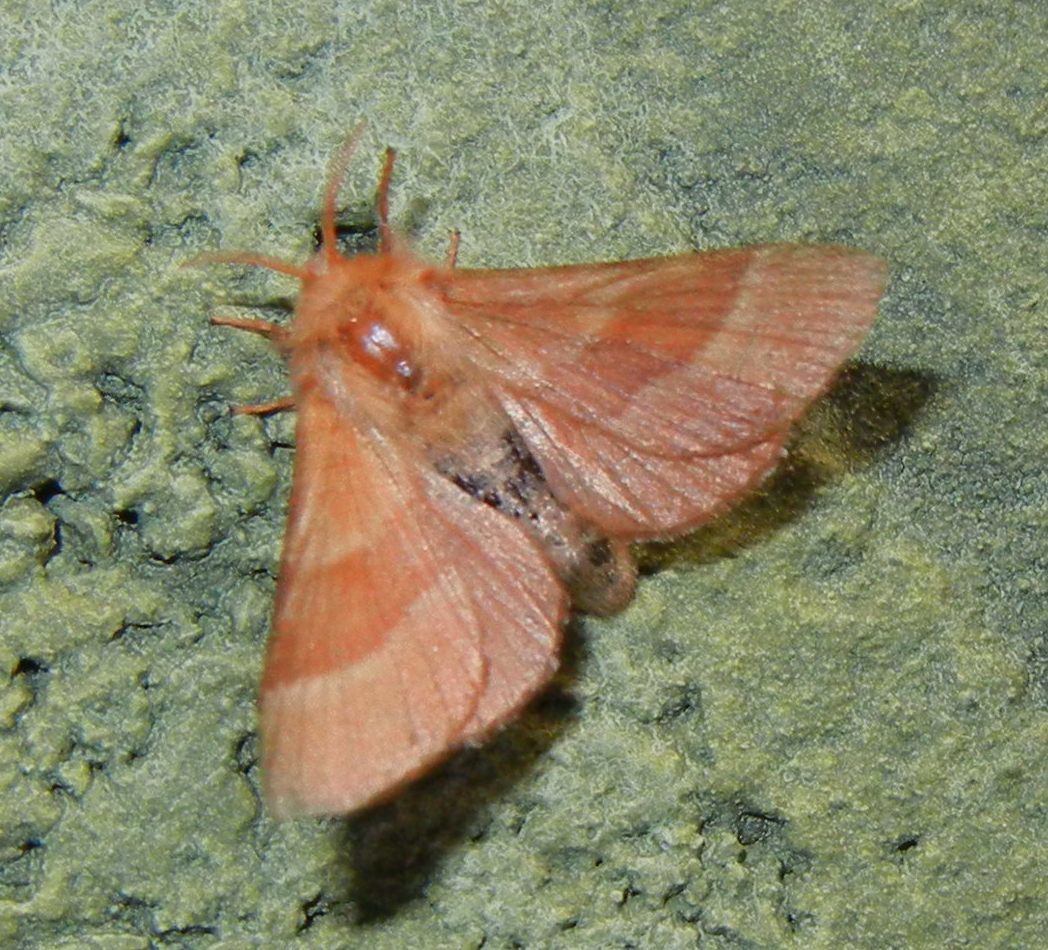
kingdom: Animalia
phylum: Arthropoda
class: Insecta
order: Lepidoptera
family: Lasiocampidae
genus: Malacosoma
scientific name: Malacosoma neustria
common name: The lackey
